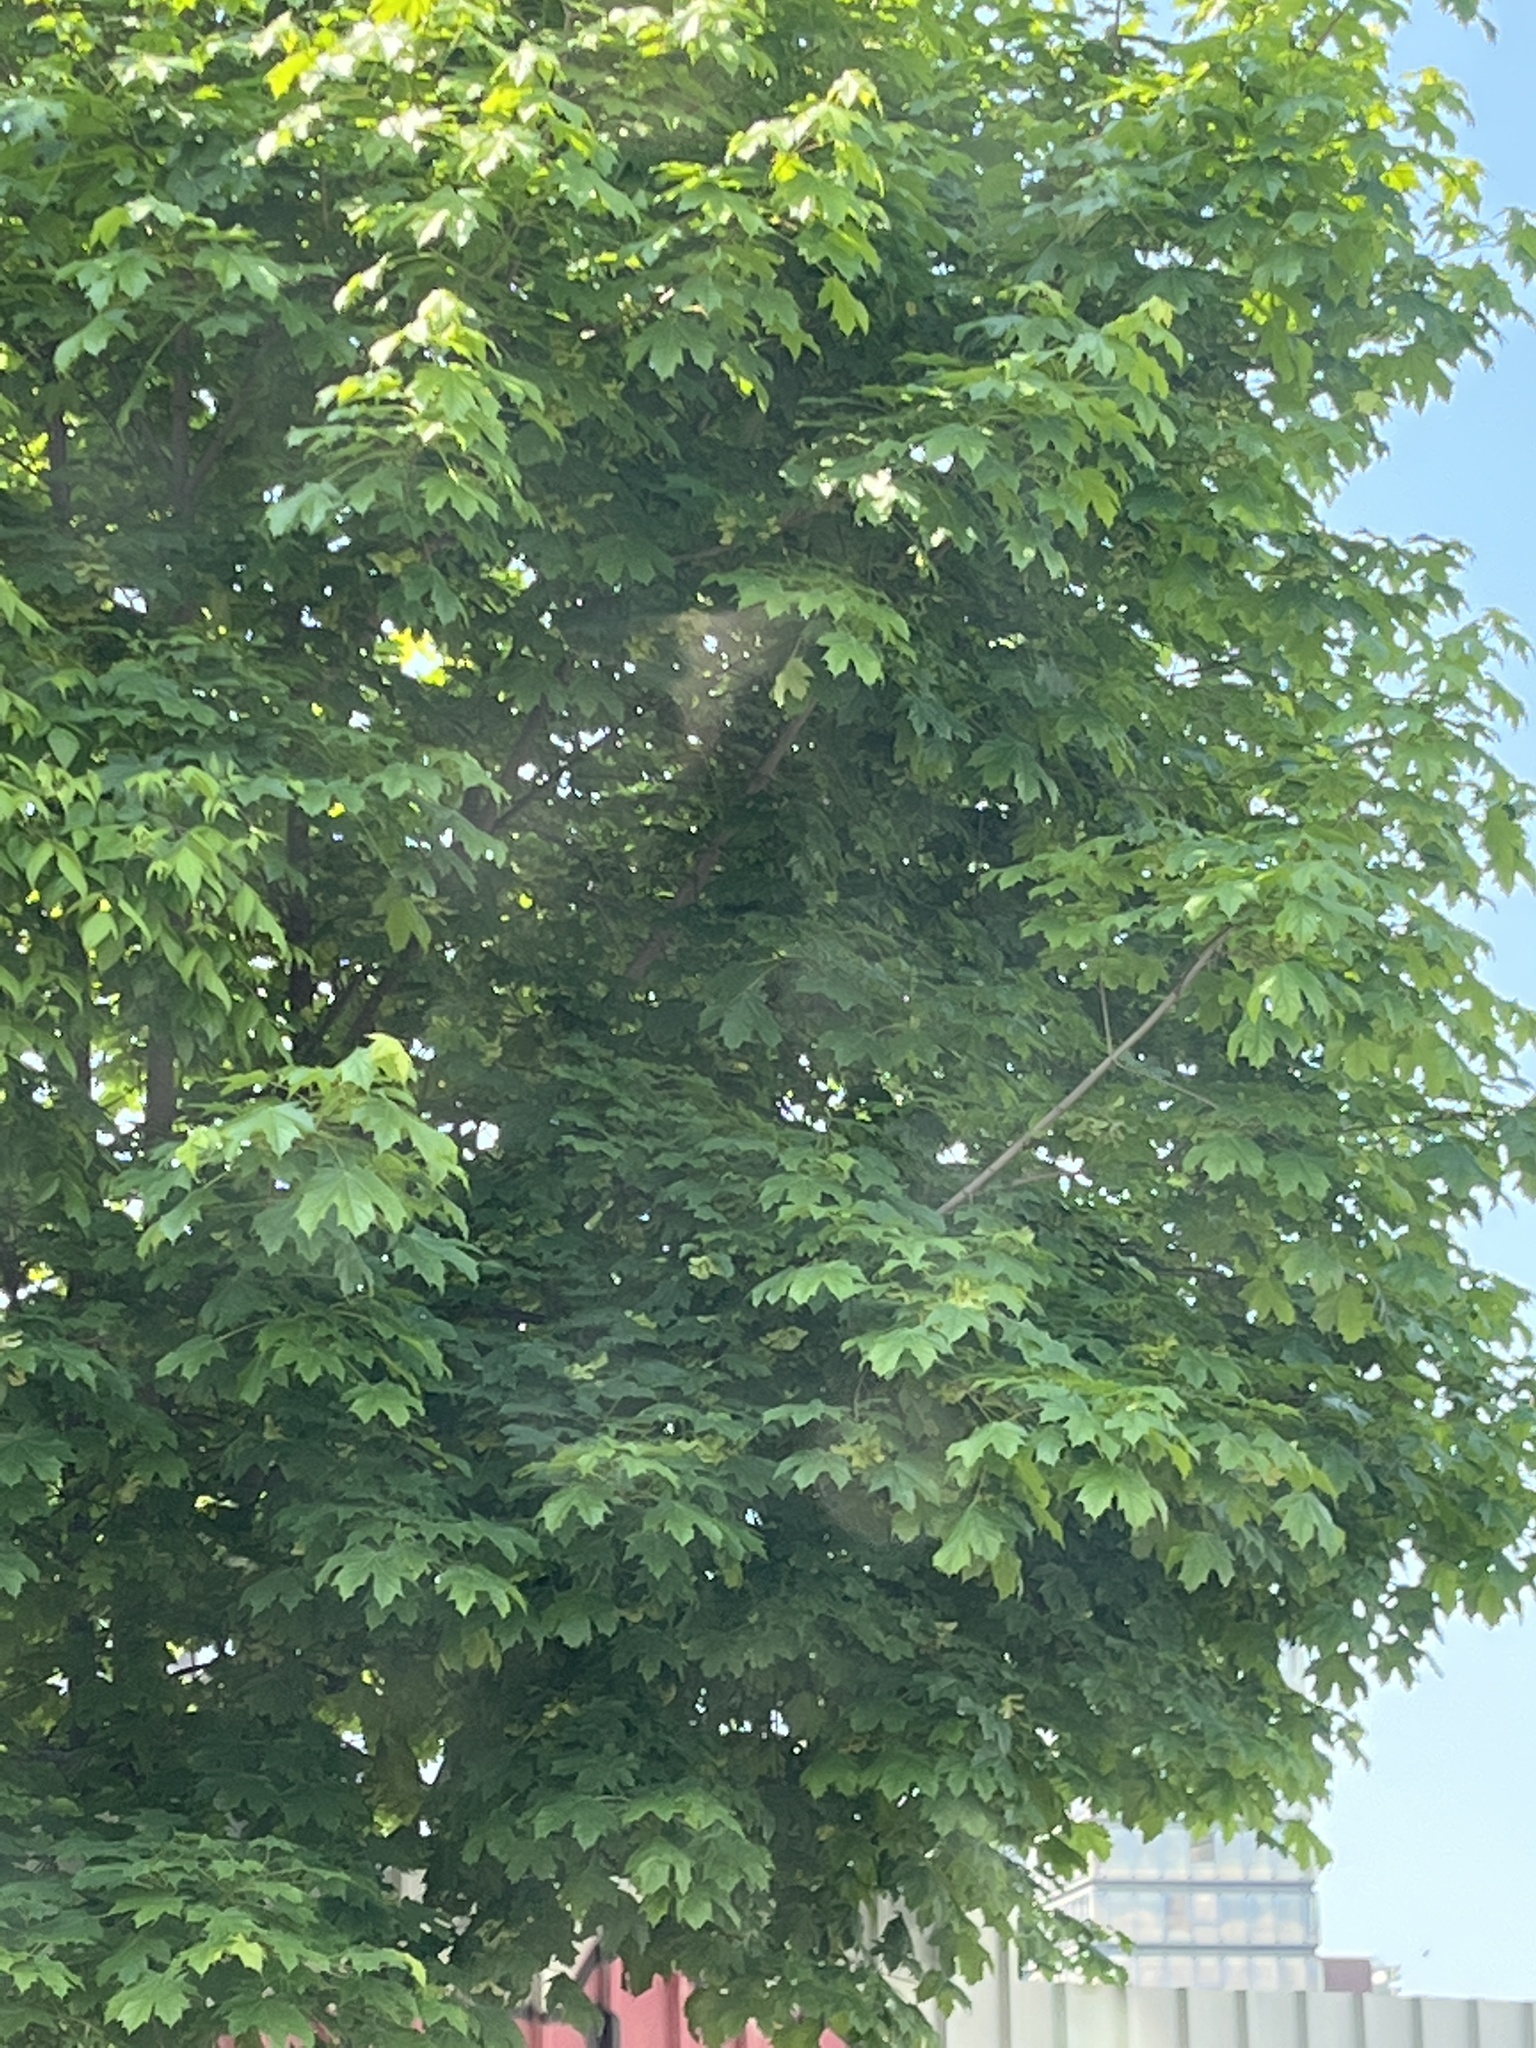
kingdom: Plantae
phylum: Tracheophyta
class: Magnoliopsida
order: Sapindales
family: Sapindaceae
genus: Acer
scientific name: Acer platanoides
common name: Norway maple
